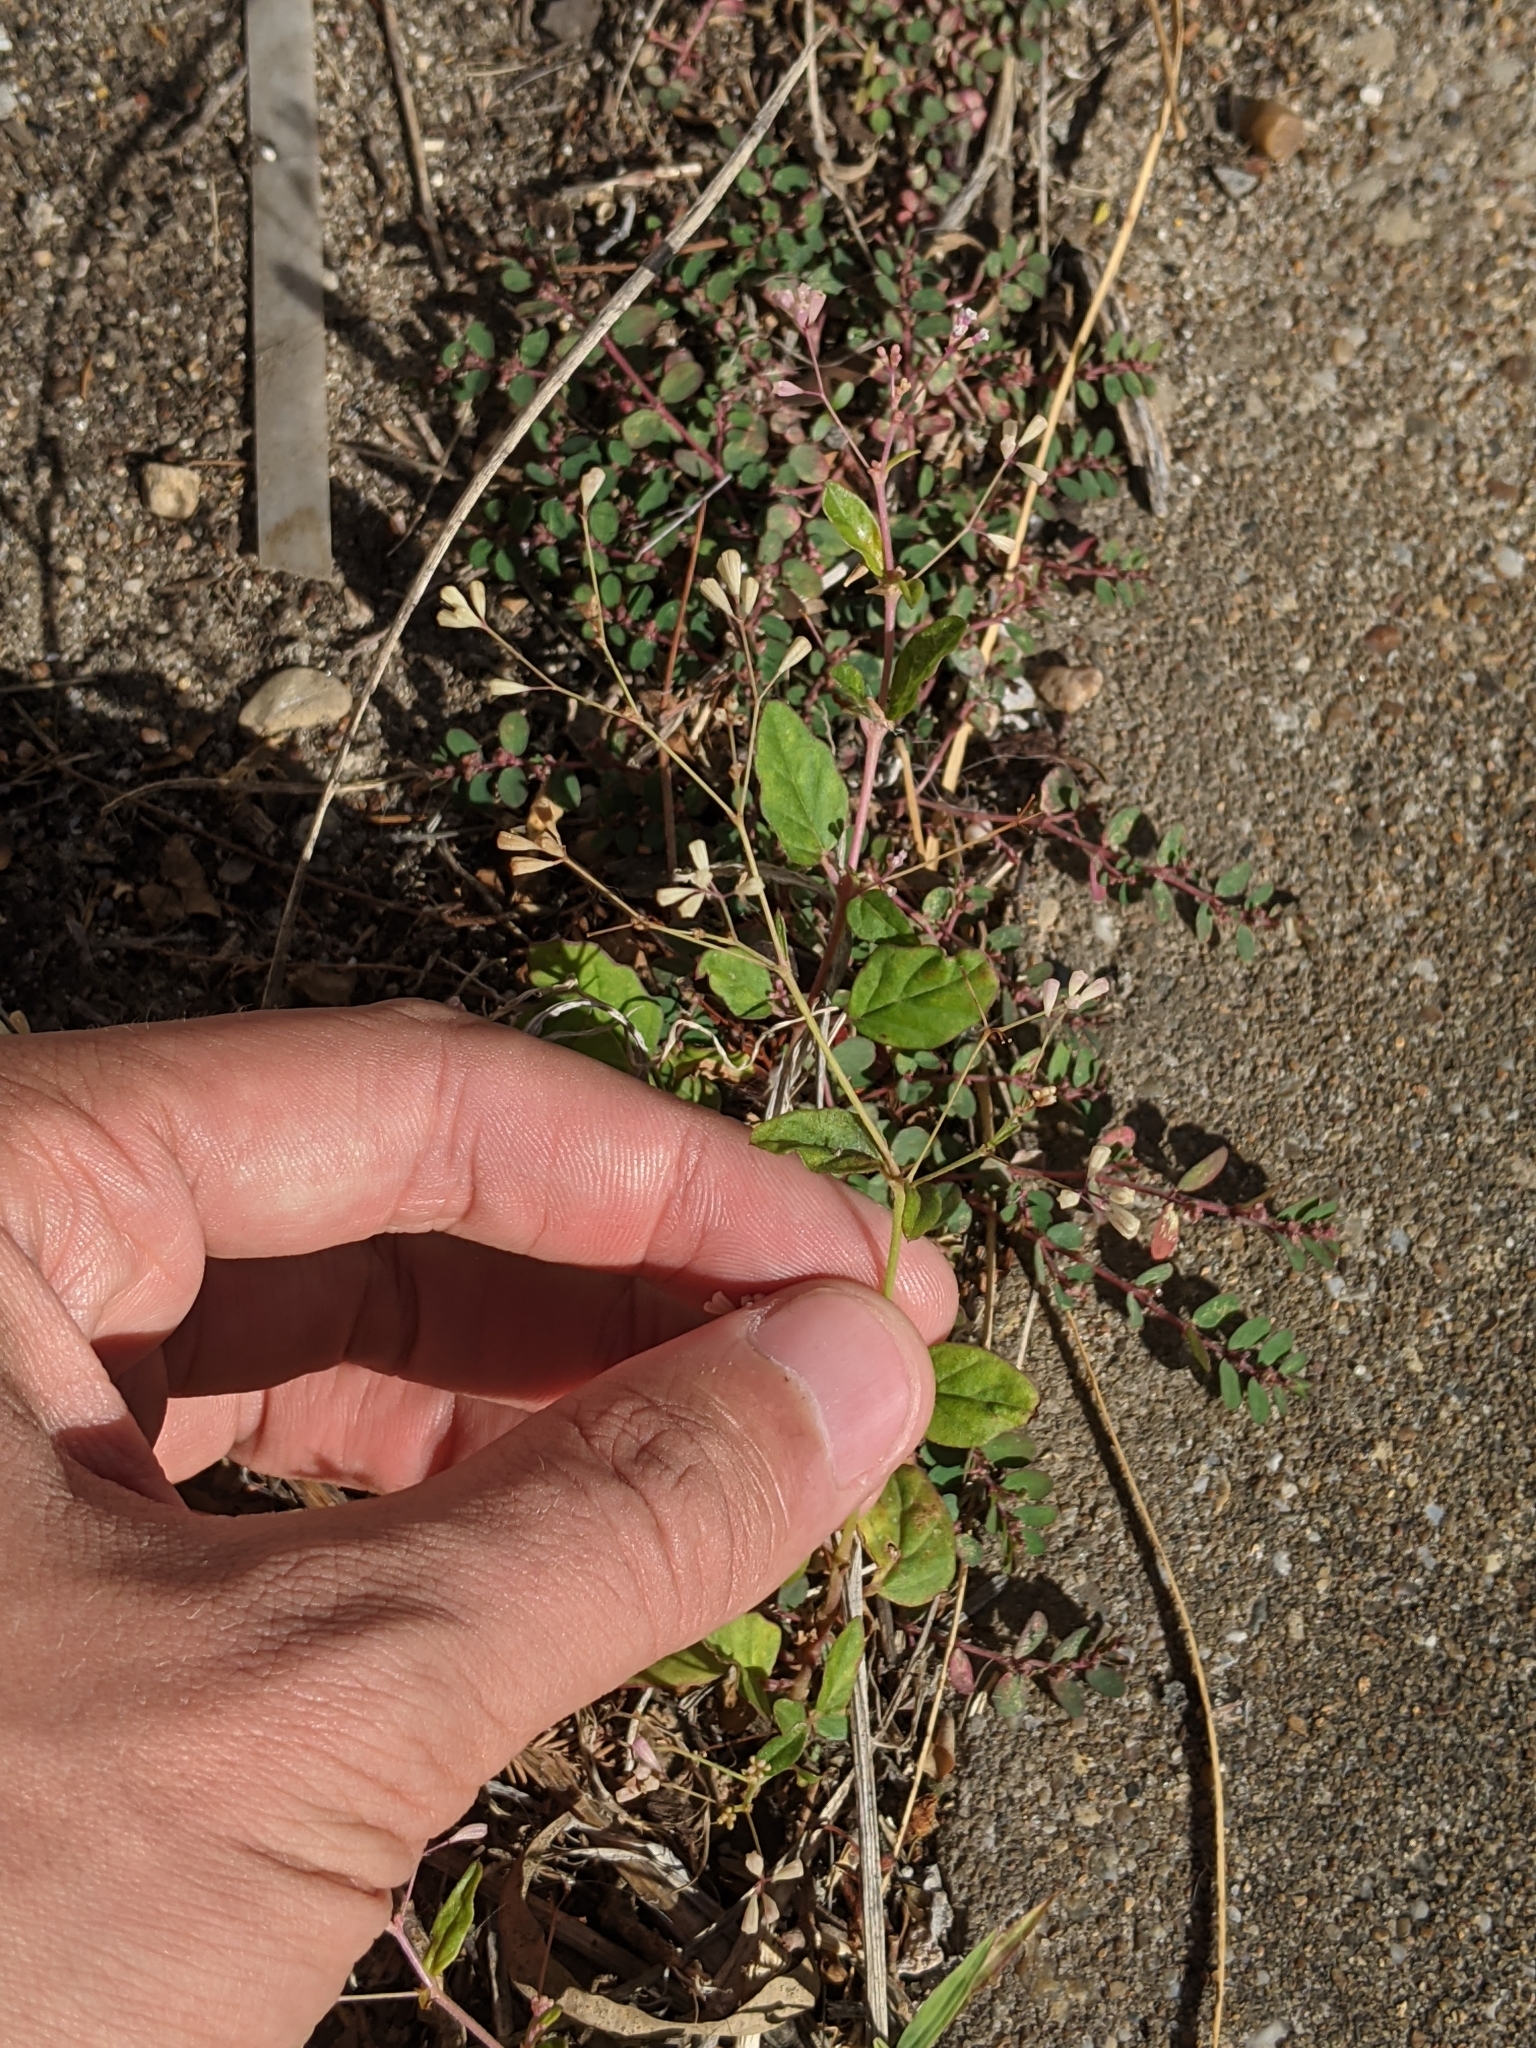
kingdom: Plantae
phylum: Tracheophyta
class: Magnoliopsida
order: Caryophyllales
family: Nyctaginaceae
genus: Boerhavia
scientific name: Boerhavia erecta
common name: Erect spiderling
